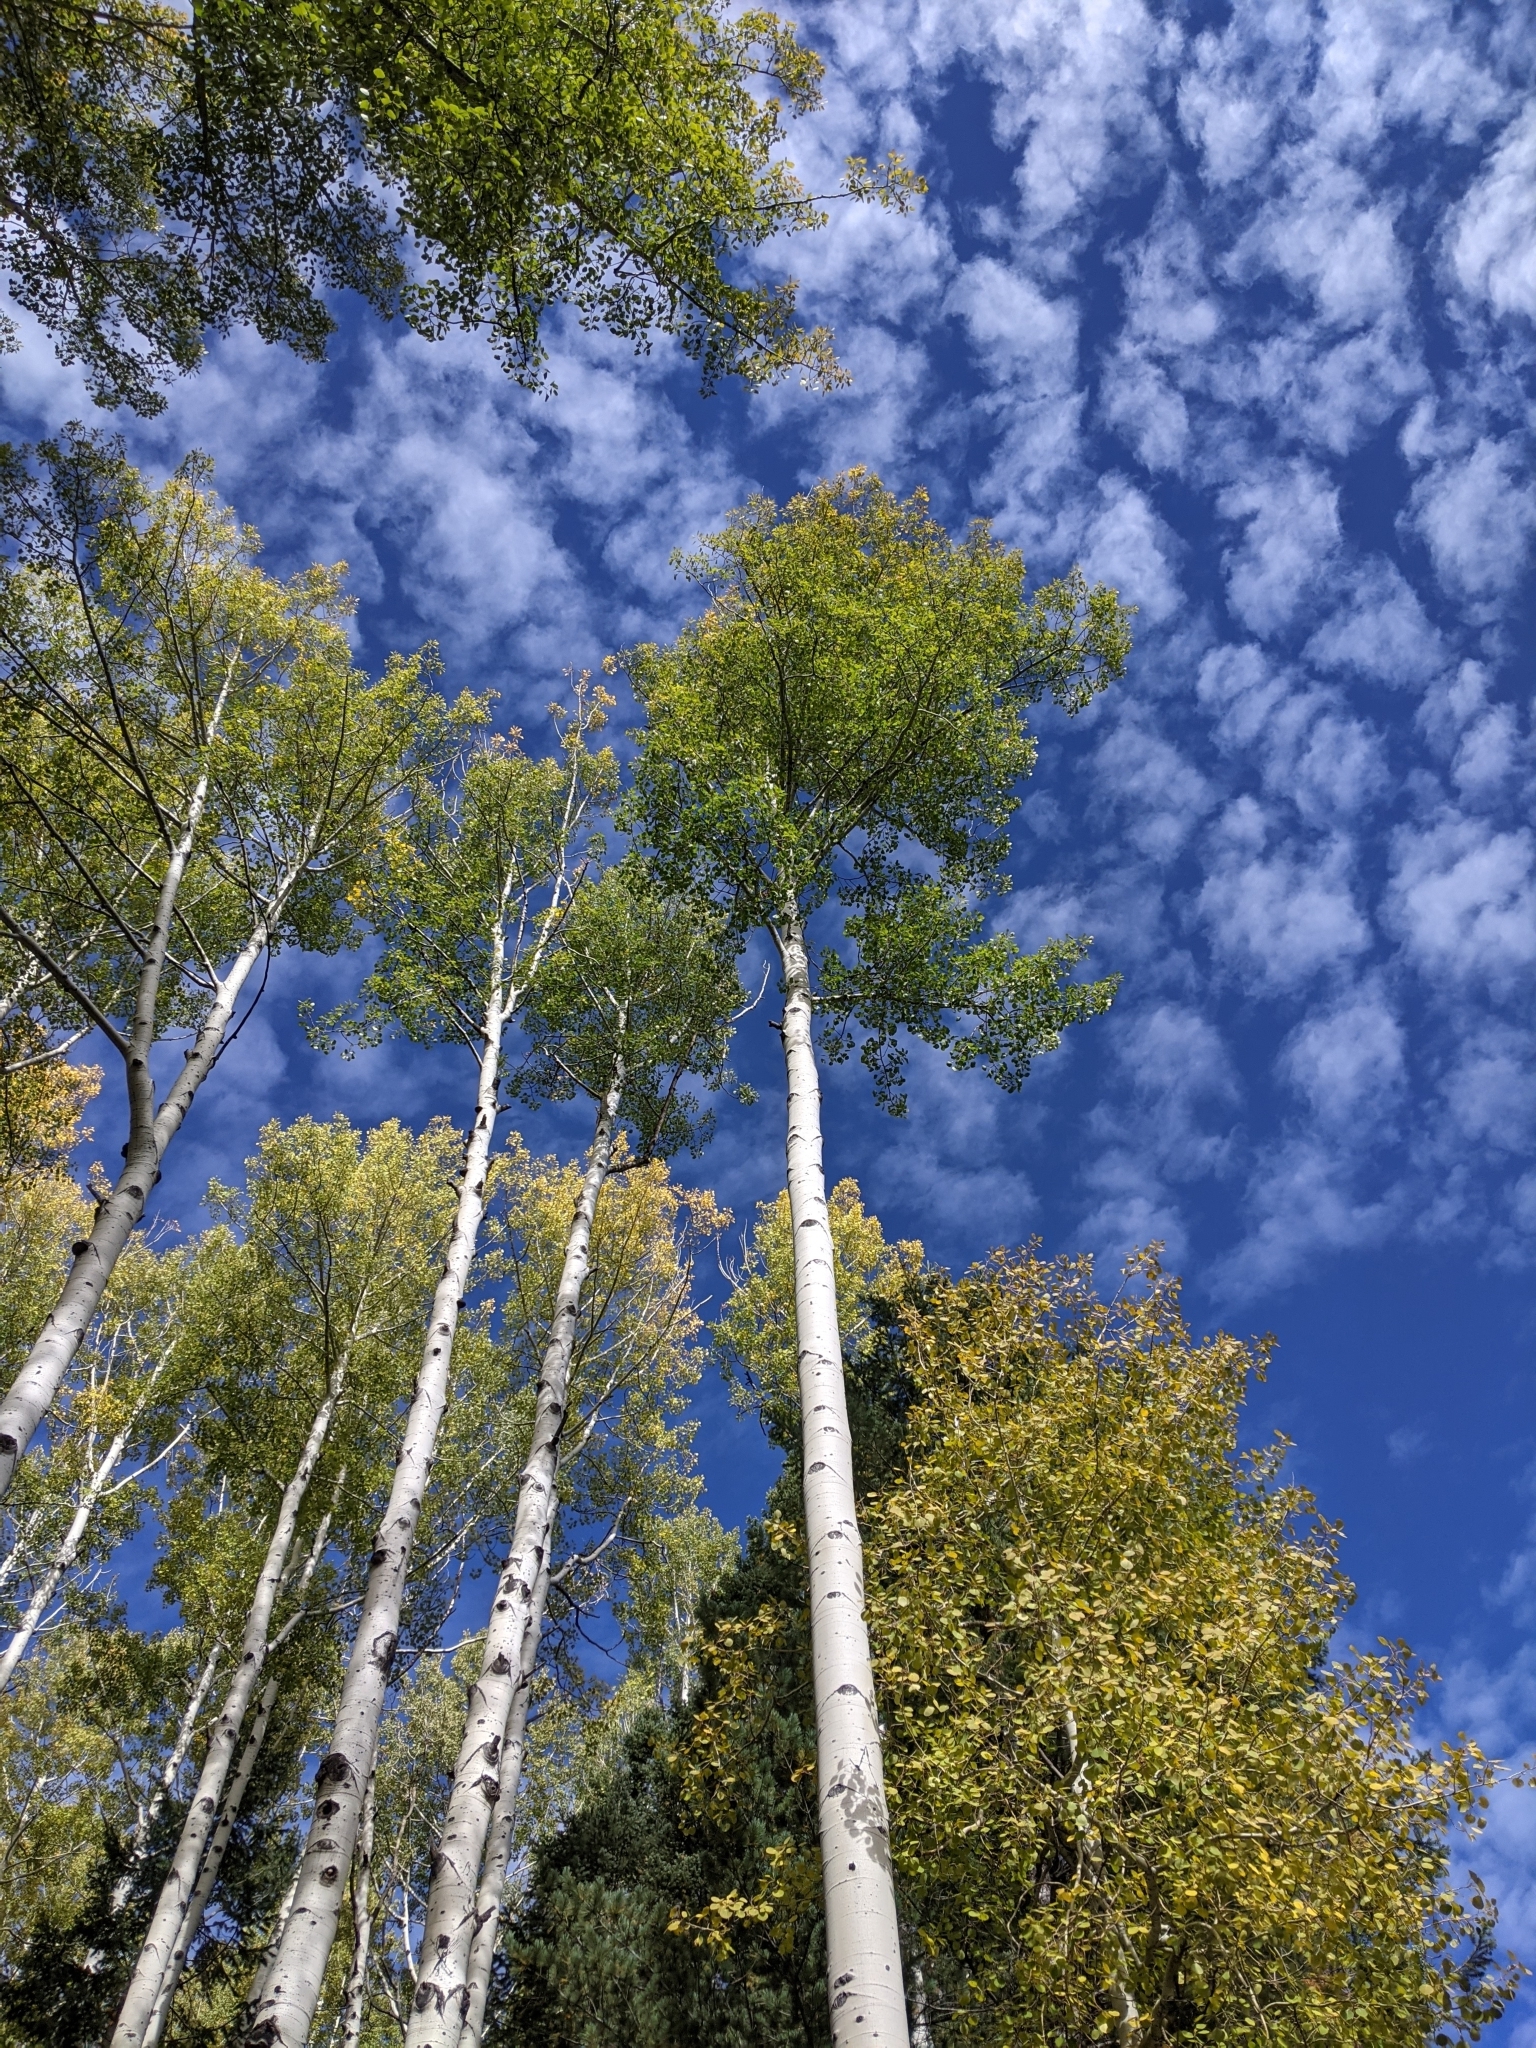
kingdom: Plantae
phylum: Tracheophyta
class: Magnoliopsida
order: Malpighiales
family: Salicaceae
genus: Populus
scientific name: Populus tremuloides
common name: Quaking aspen
